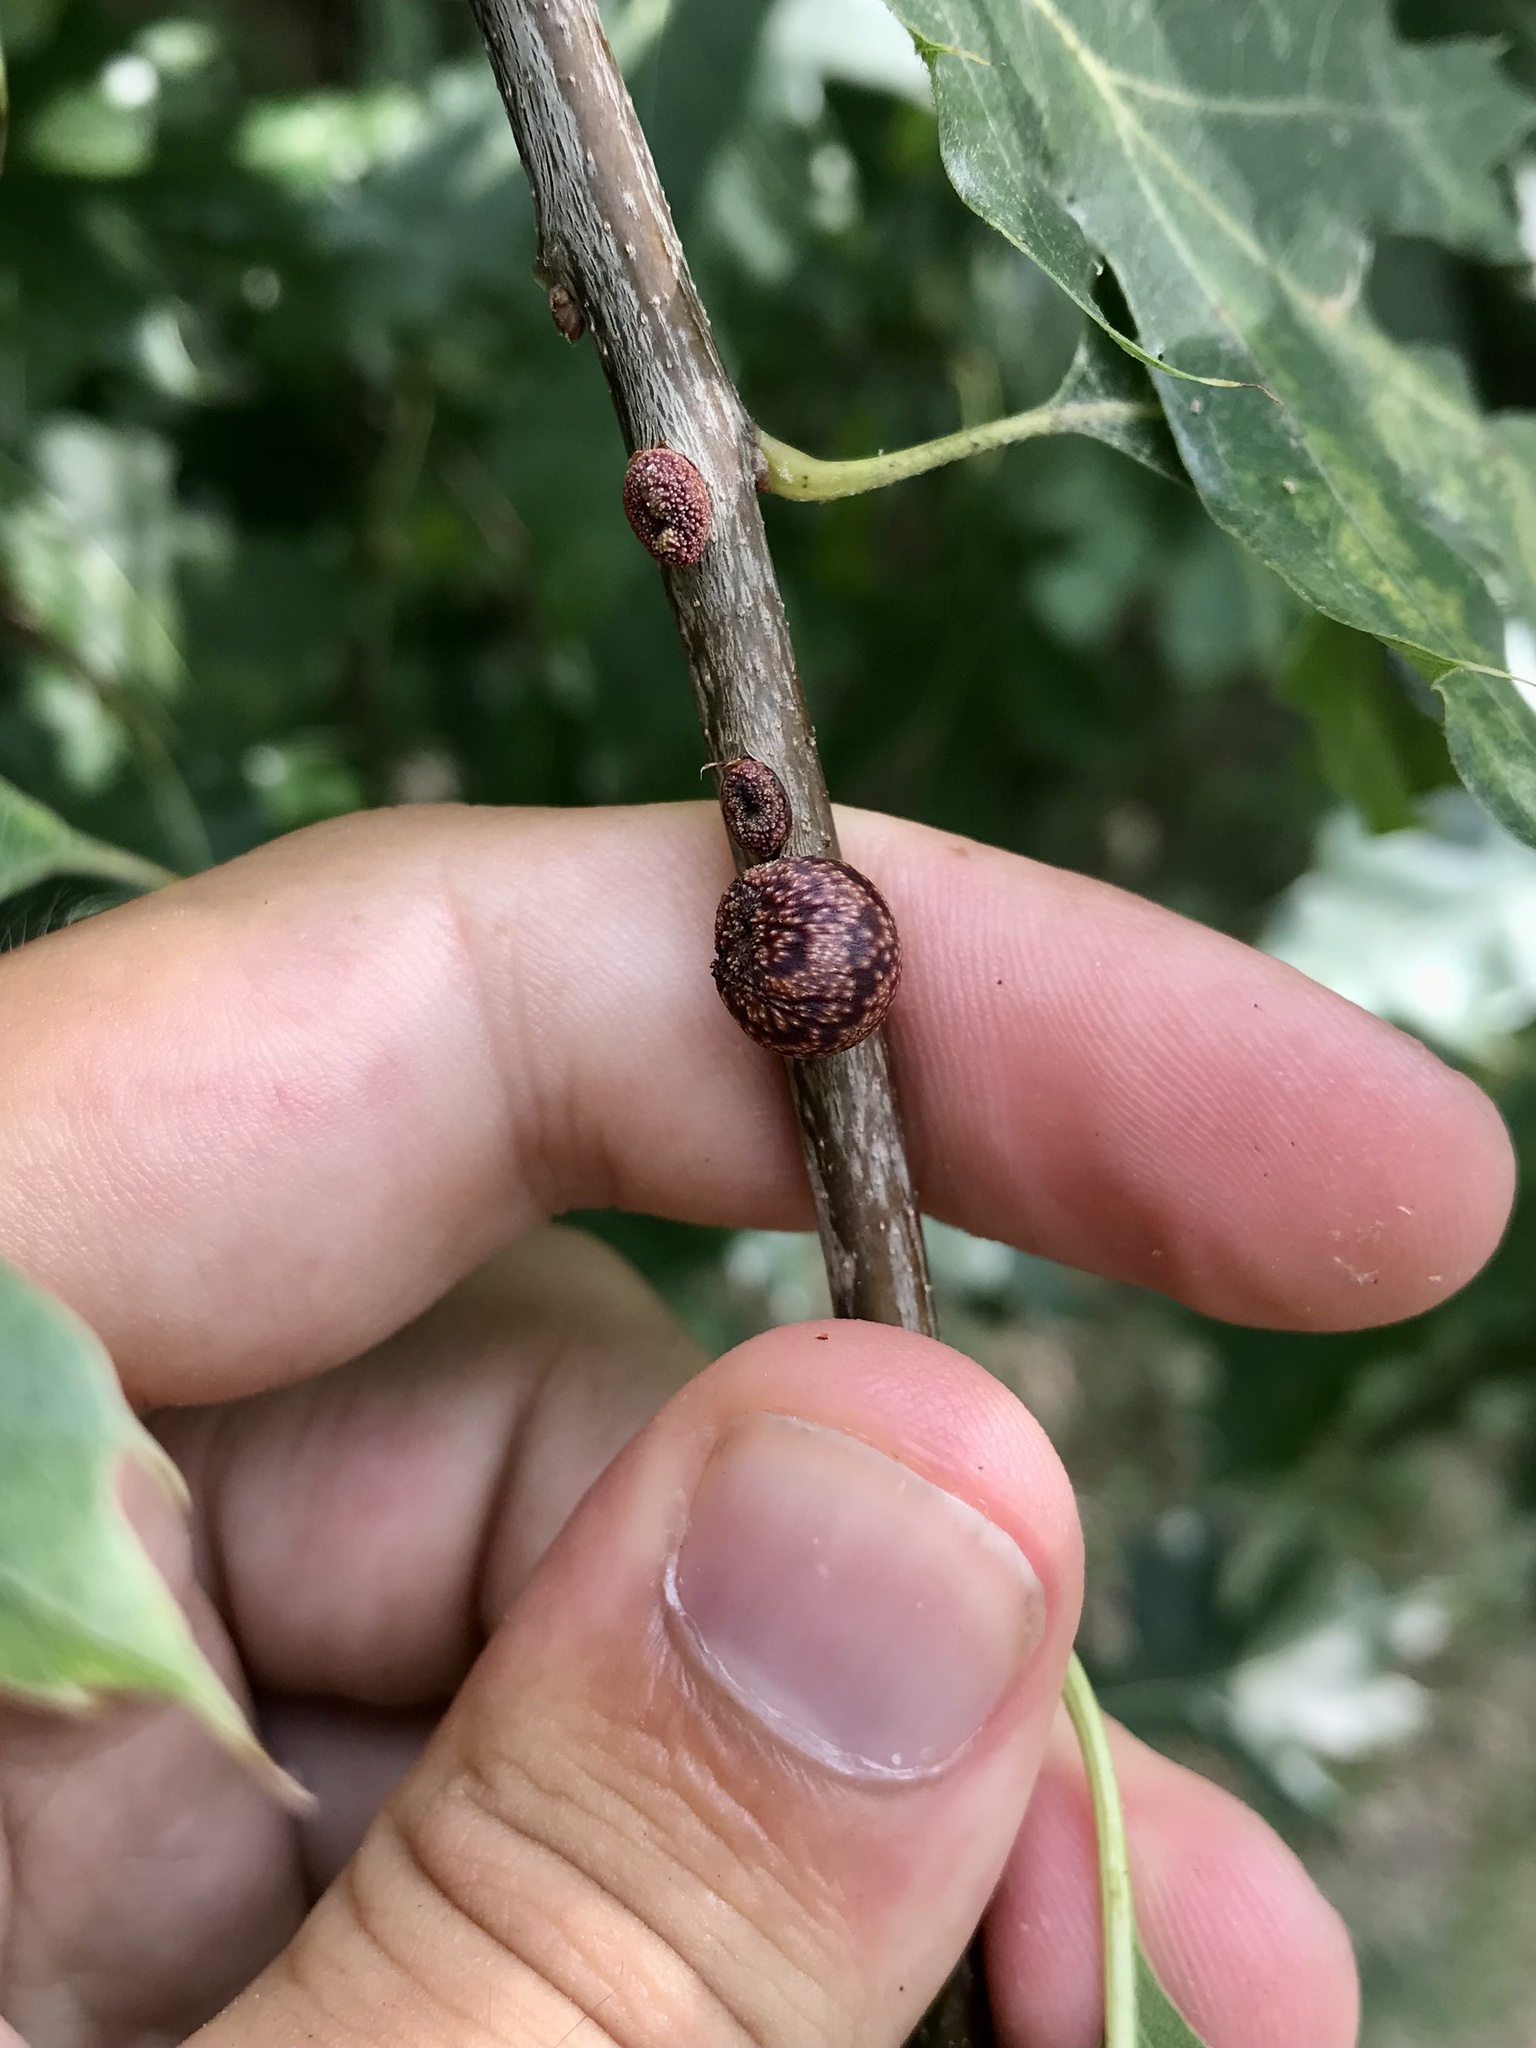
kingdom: Animalia
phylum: Arthropoda
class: Insecta
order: Hymenoptera
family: Cynipidae
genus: Kokkocynips
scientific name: Kokkocynips imbricariae
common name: Banded bullet gall wasp
